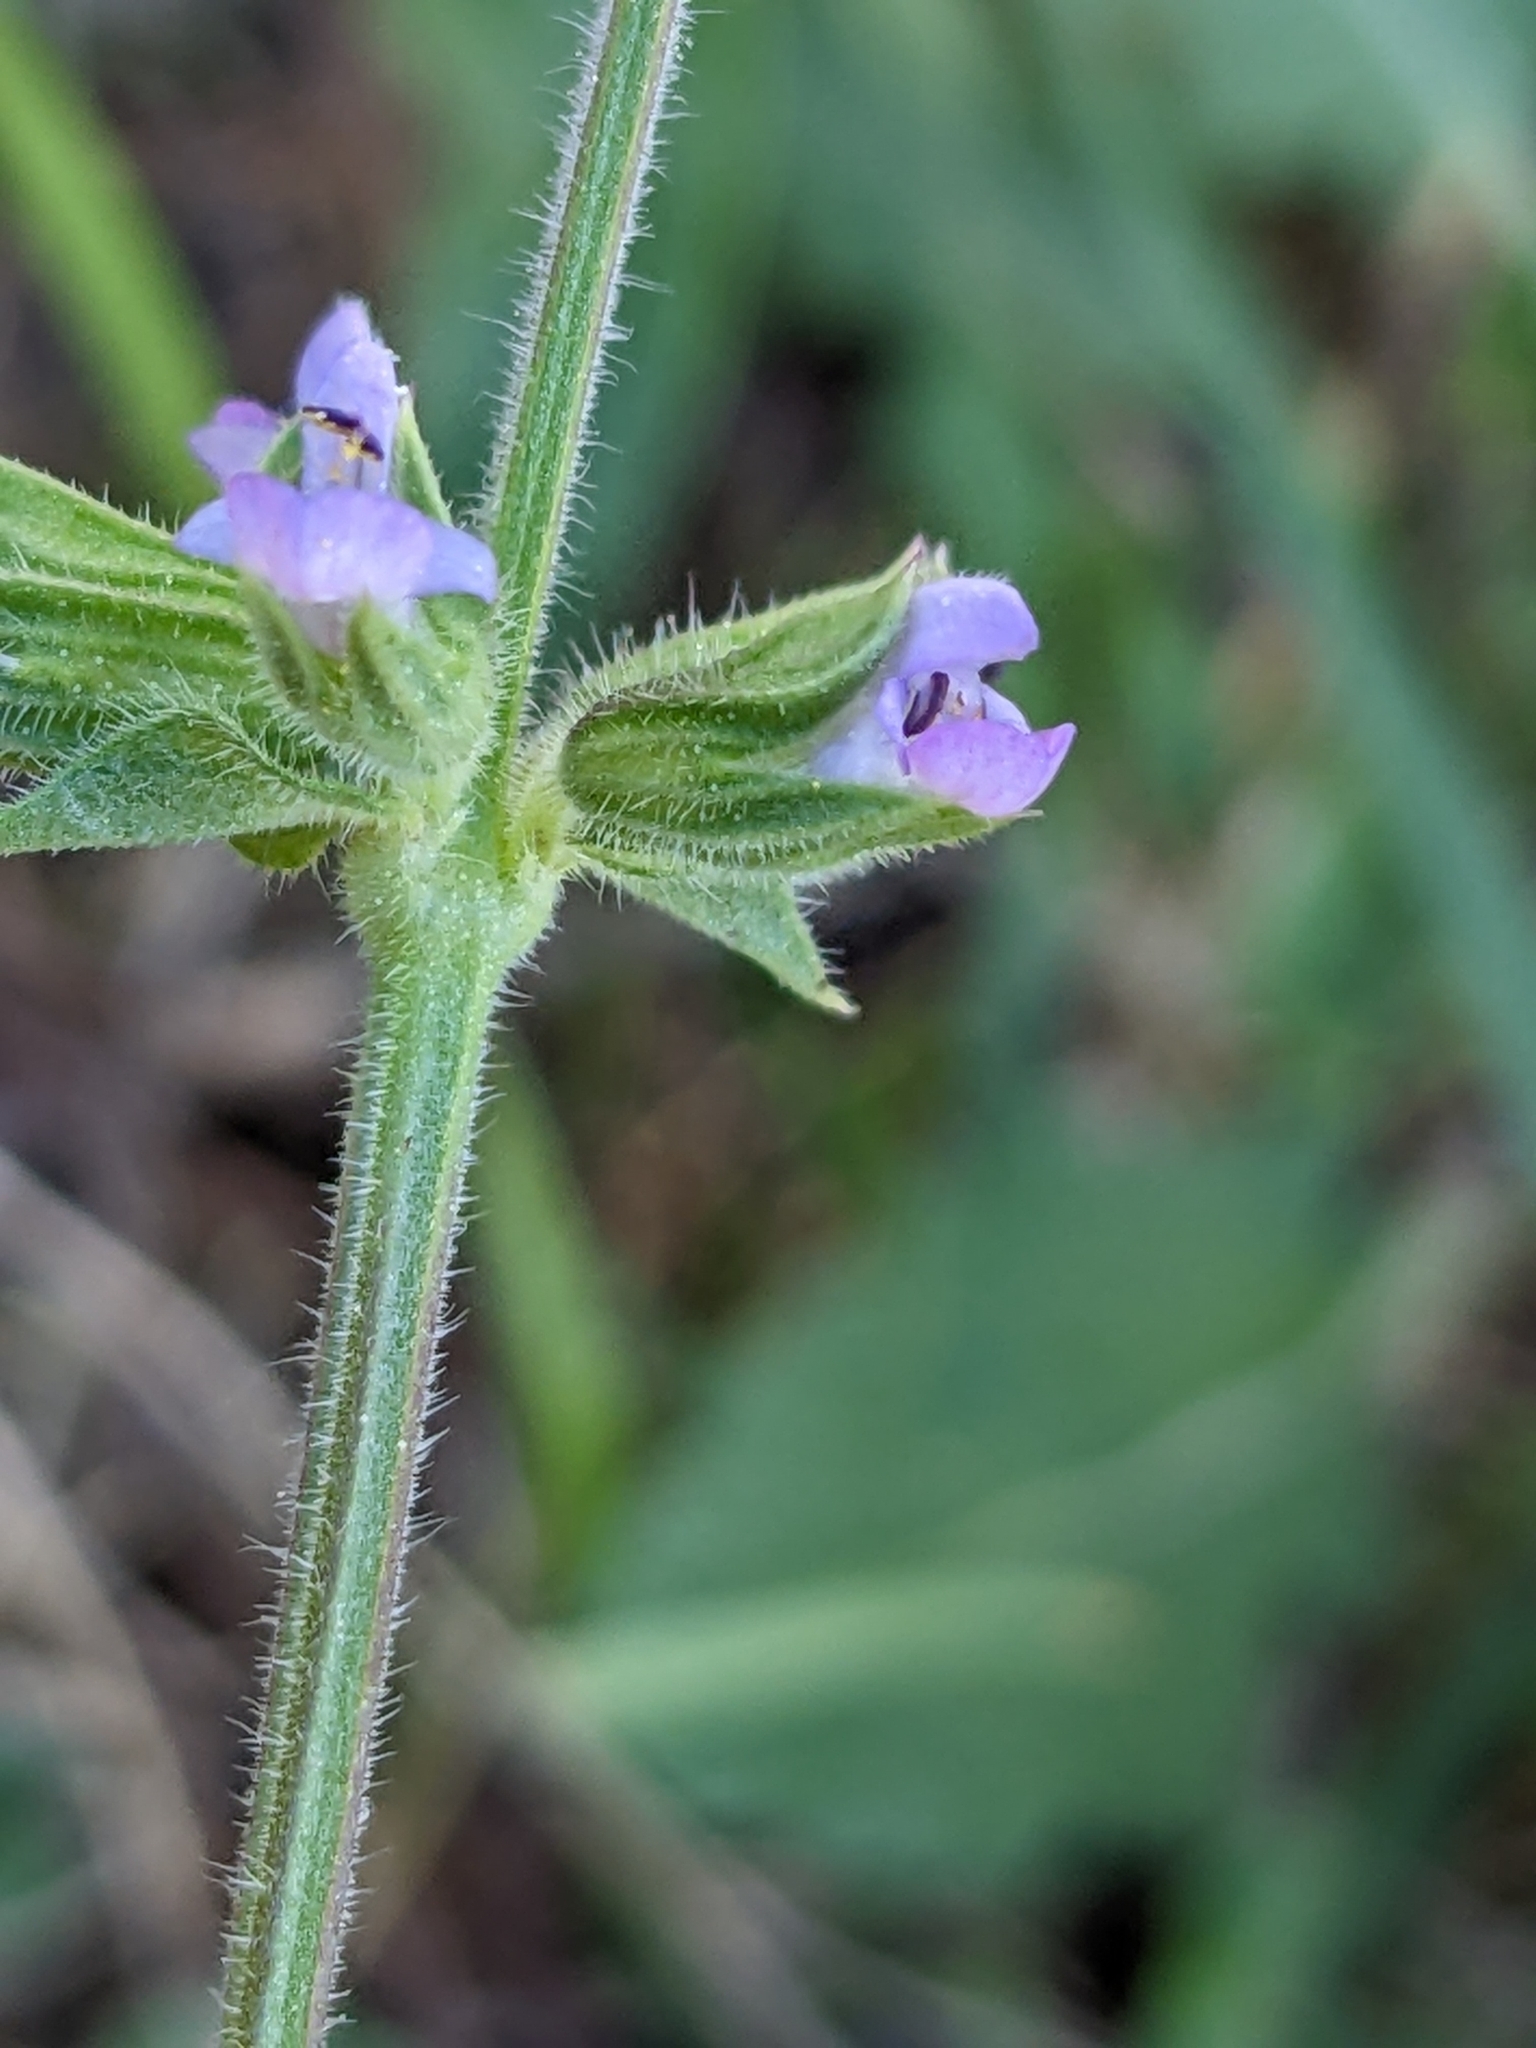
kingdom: Plantae
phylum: Tracheophyta
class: Magnoliopsida
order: Lamiales
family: Lamiaceae
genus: Salvia
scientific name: Salvia verbenaca
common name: Wild clary
